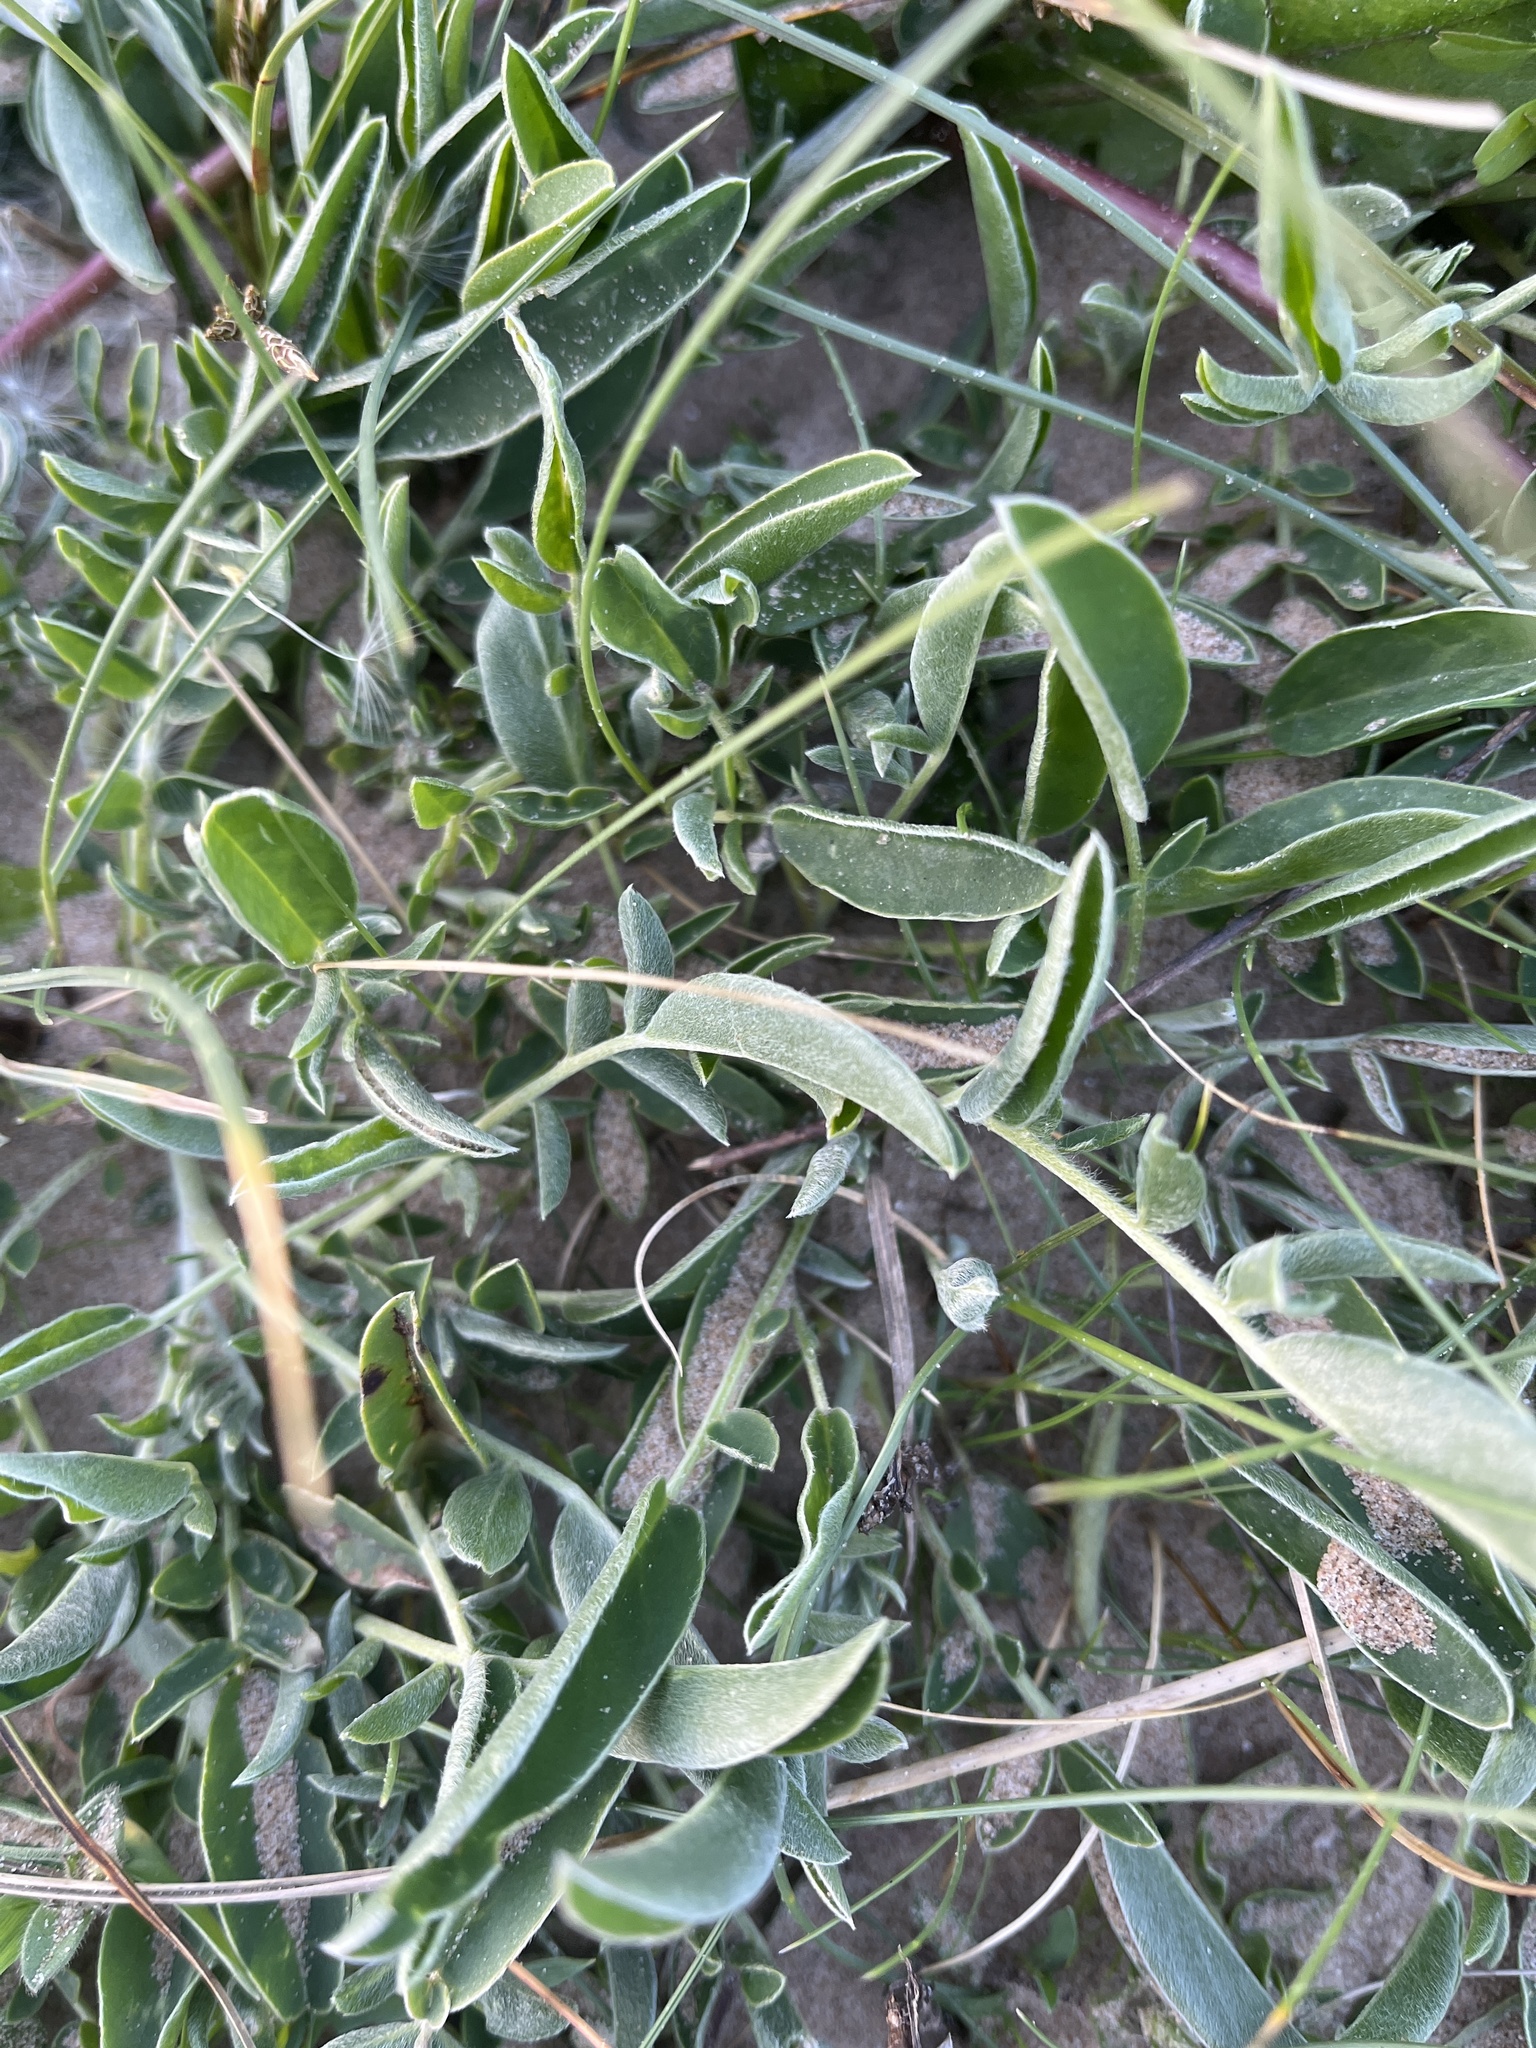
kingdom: Plantae
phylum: Tracheophyta
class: Magnoliopsida
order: Fabales
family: Fabaceae
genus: Anthyllis
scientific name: Anthyllis vulneraria
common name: Kidney vetch
